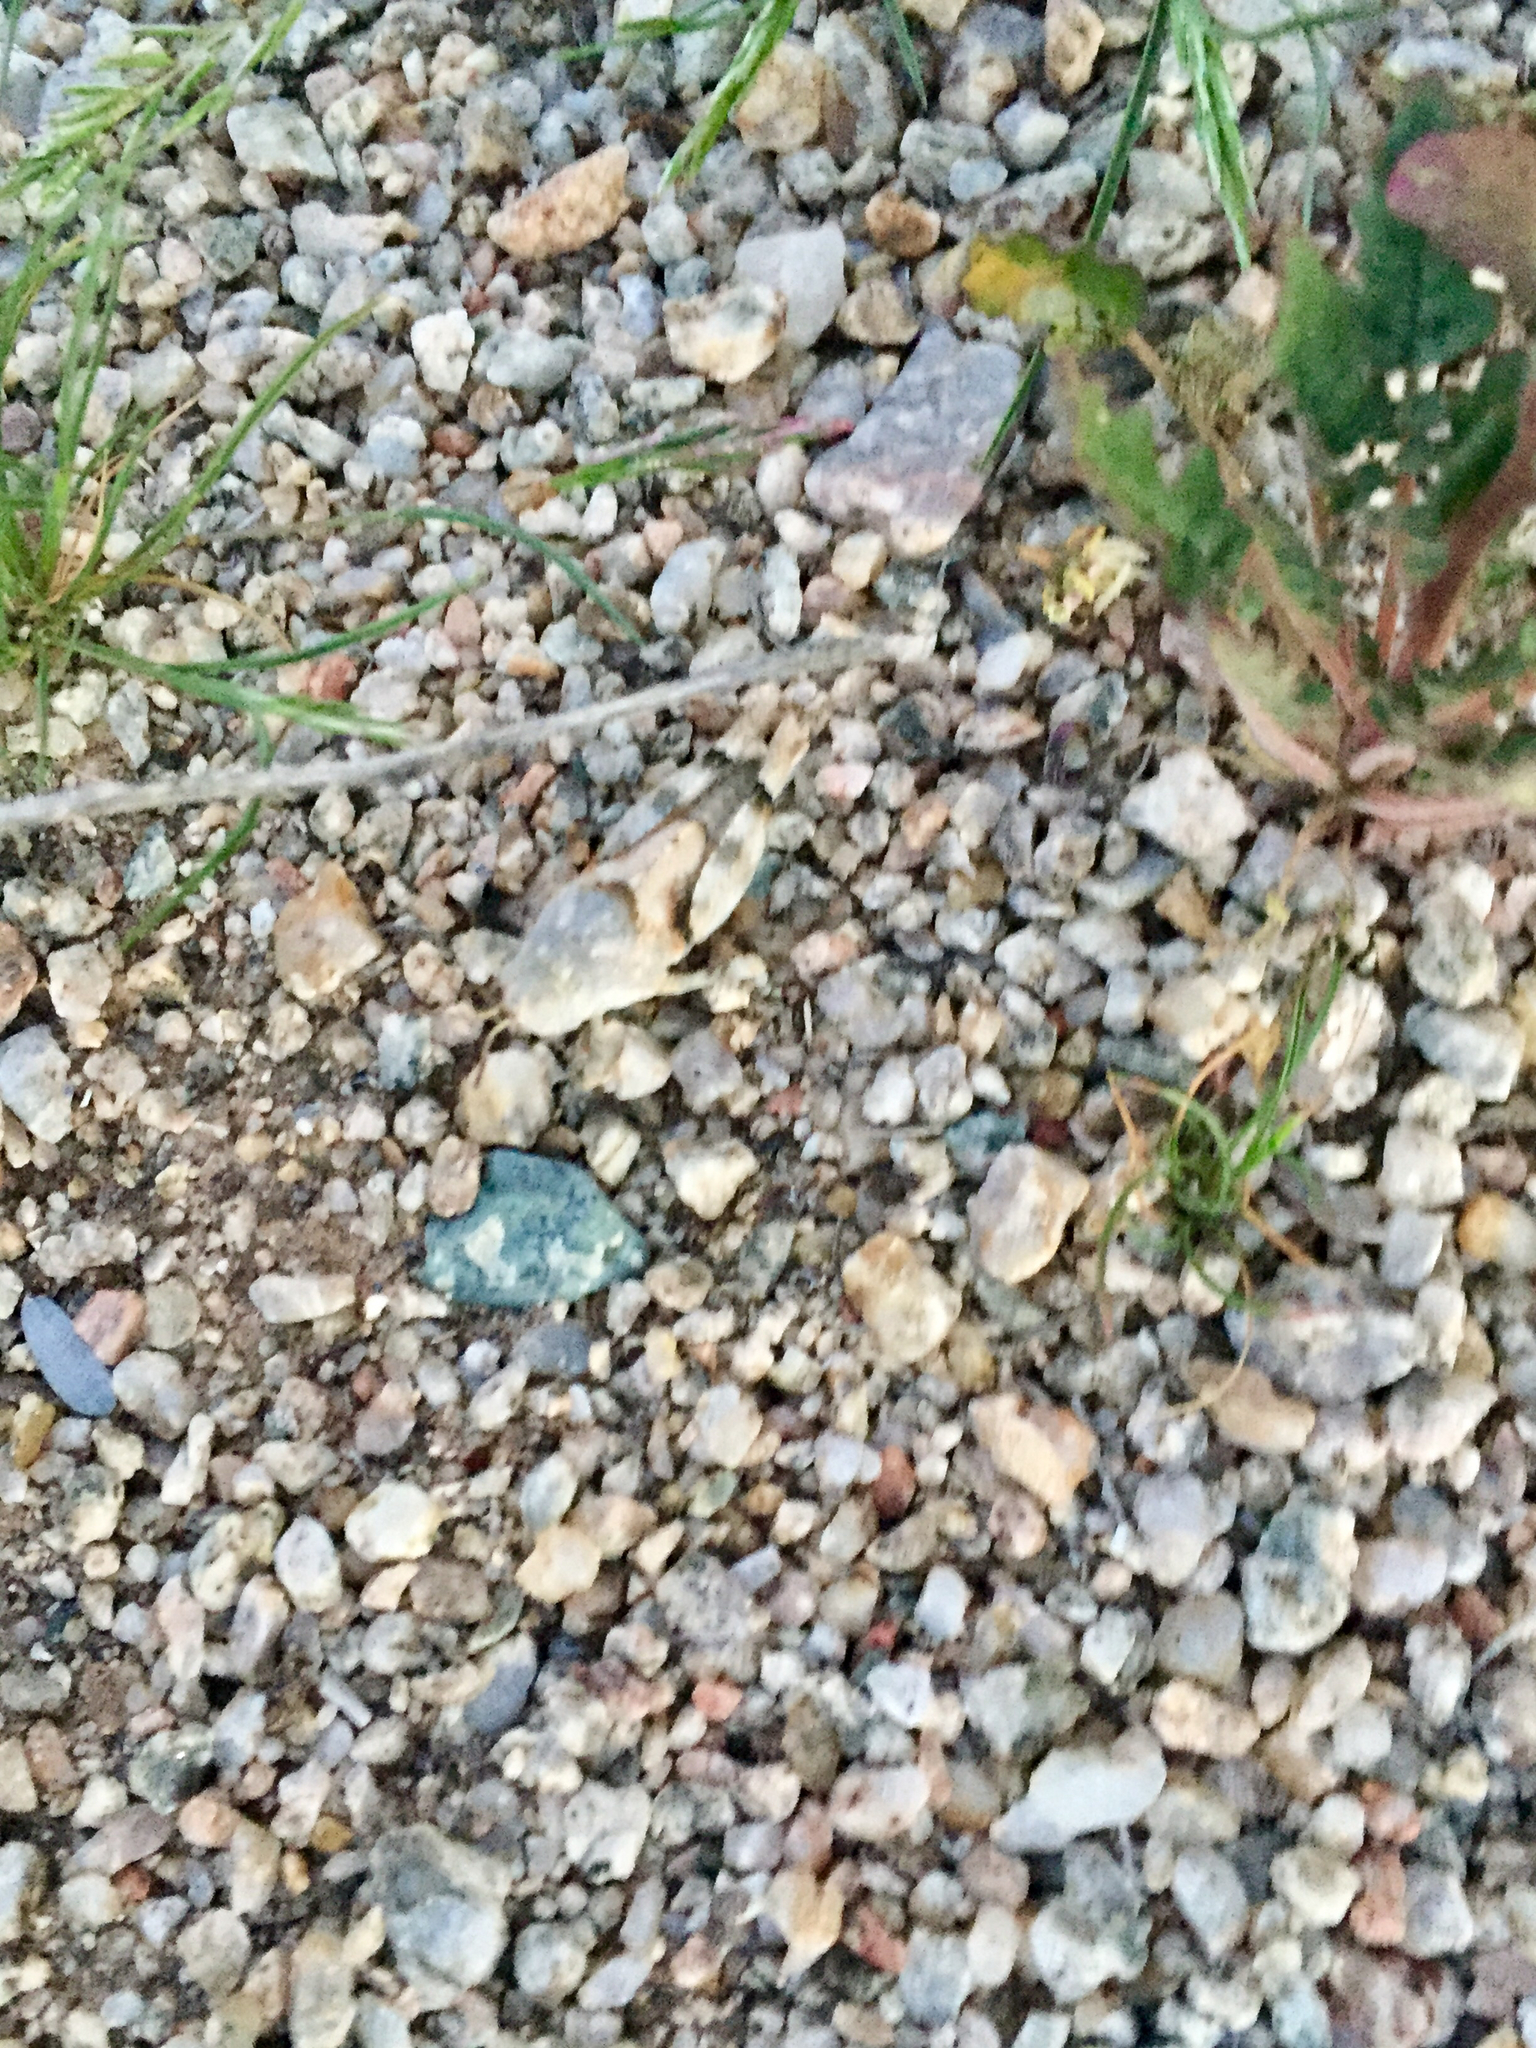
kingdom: Plantae
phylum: Tracheophyta
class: Magnoliopsida
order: Myrtales
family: Onagraceae
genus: Chylismia
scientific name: Chylismia claviformis
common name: Browneyes
